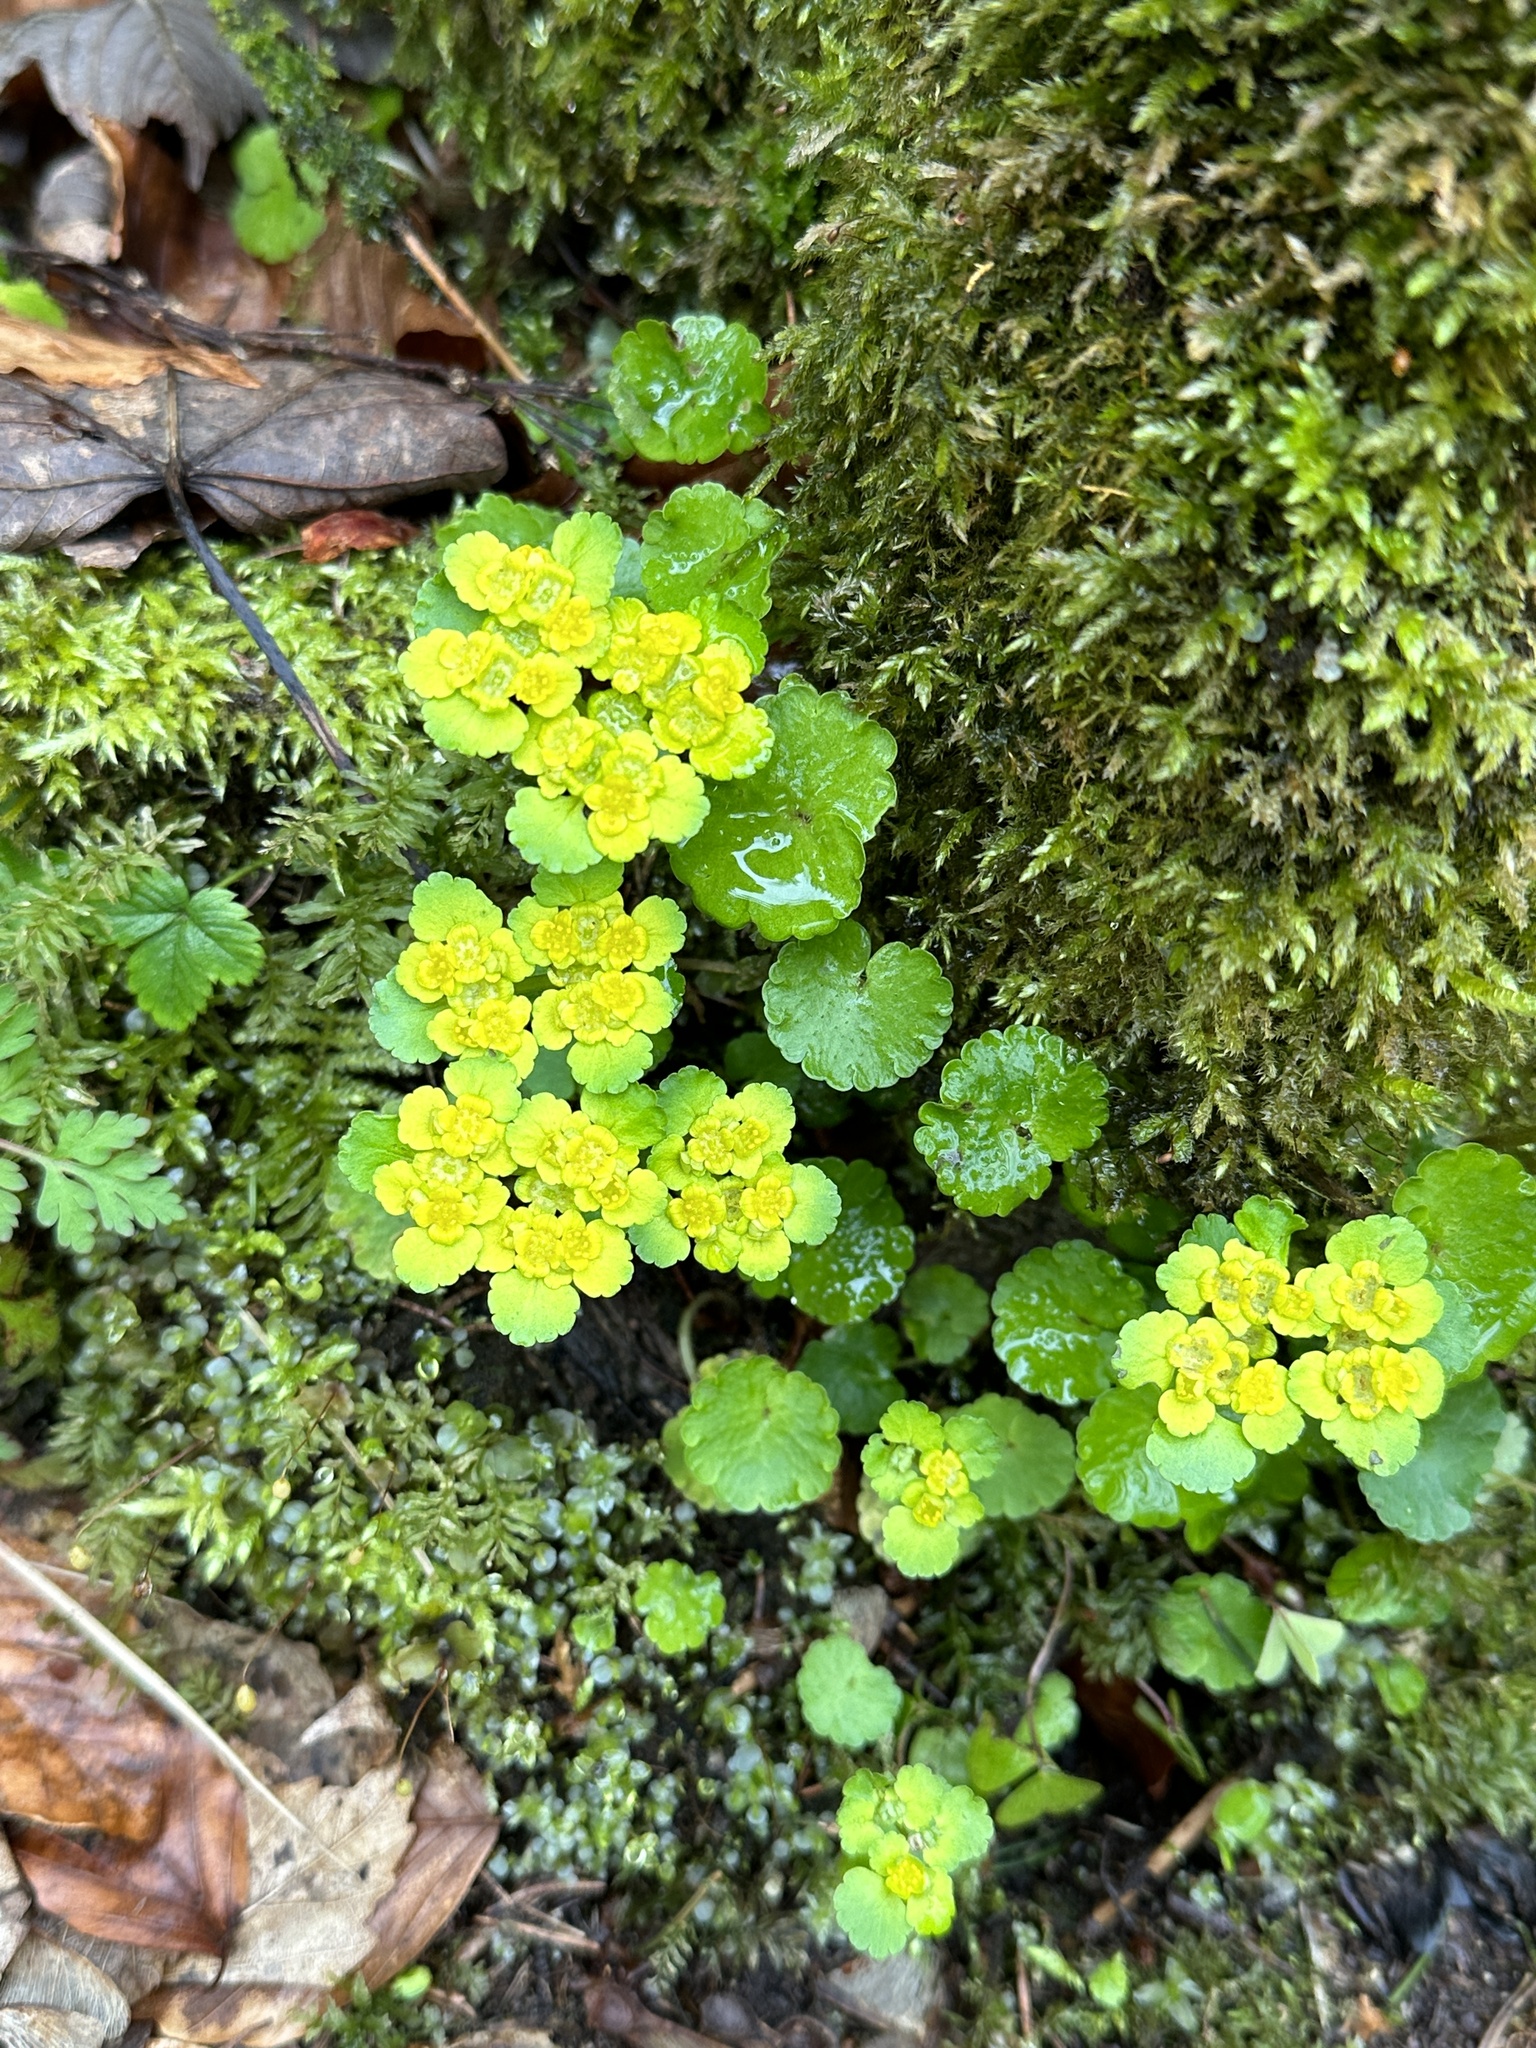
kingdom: Plantae
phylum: Tracheophyta
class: Magnoliopsida
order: Saxifragales
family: Saxifragaceae
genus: Chrysosplenium
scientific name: Chrysosplenium alternifolium
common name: Alternate-leaved golden-saxifrage
